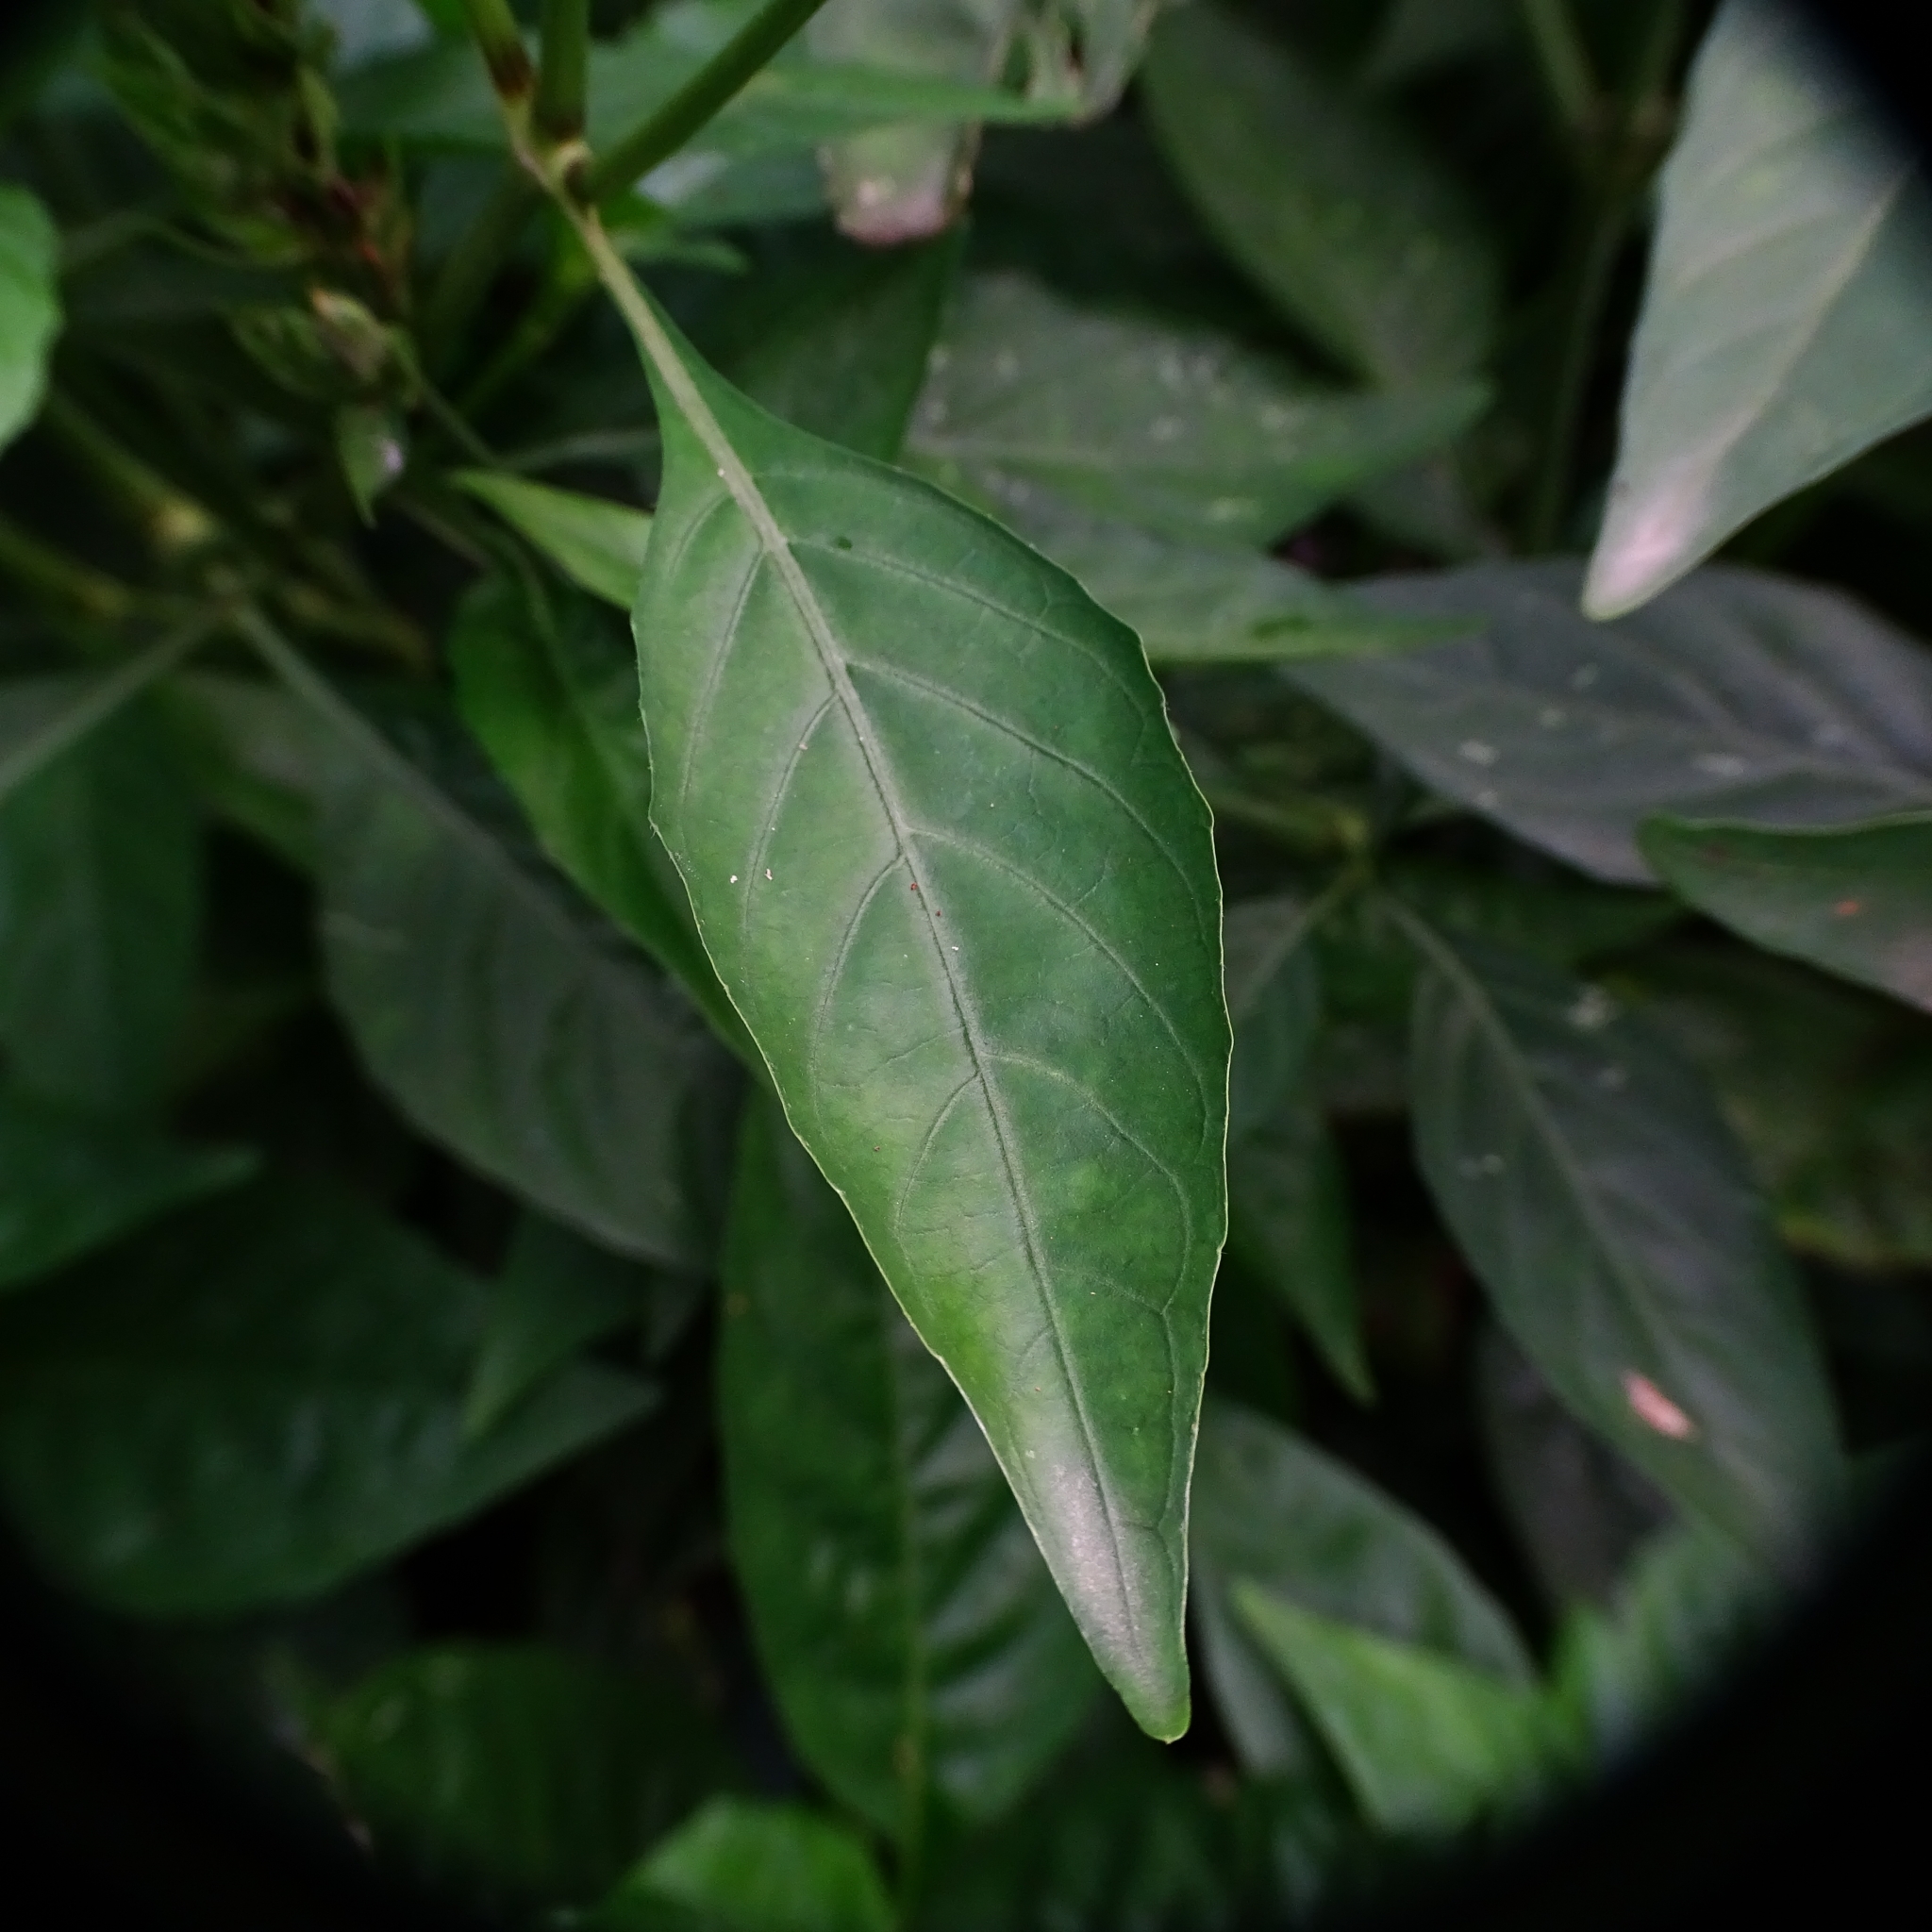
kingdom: Plantae
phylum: Tracheophyta
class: Magnoliopsida
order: Lamiales
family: Acanthaceae
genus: Justicia
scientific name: Justicia betonica
